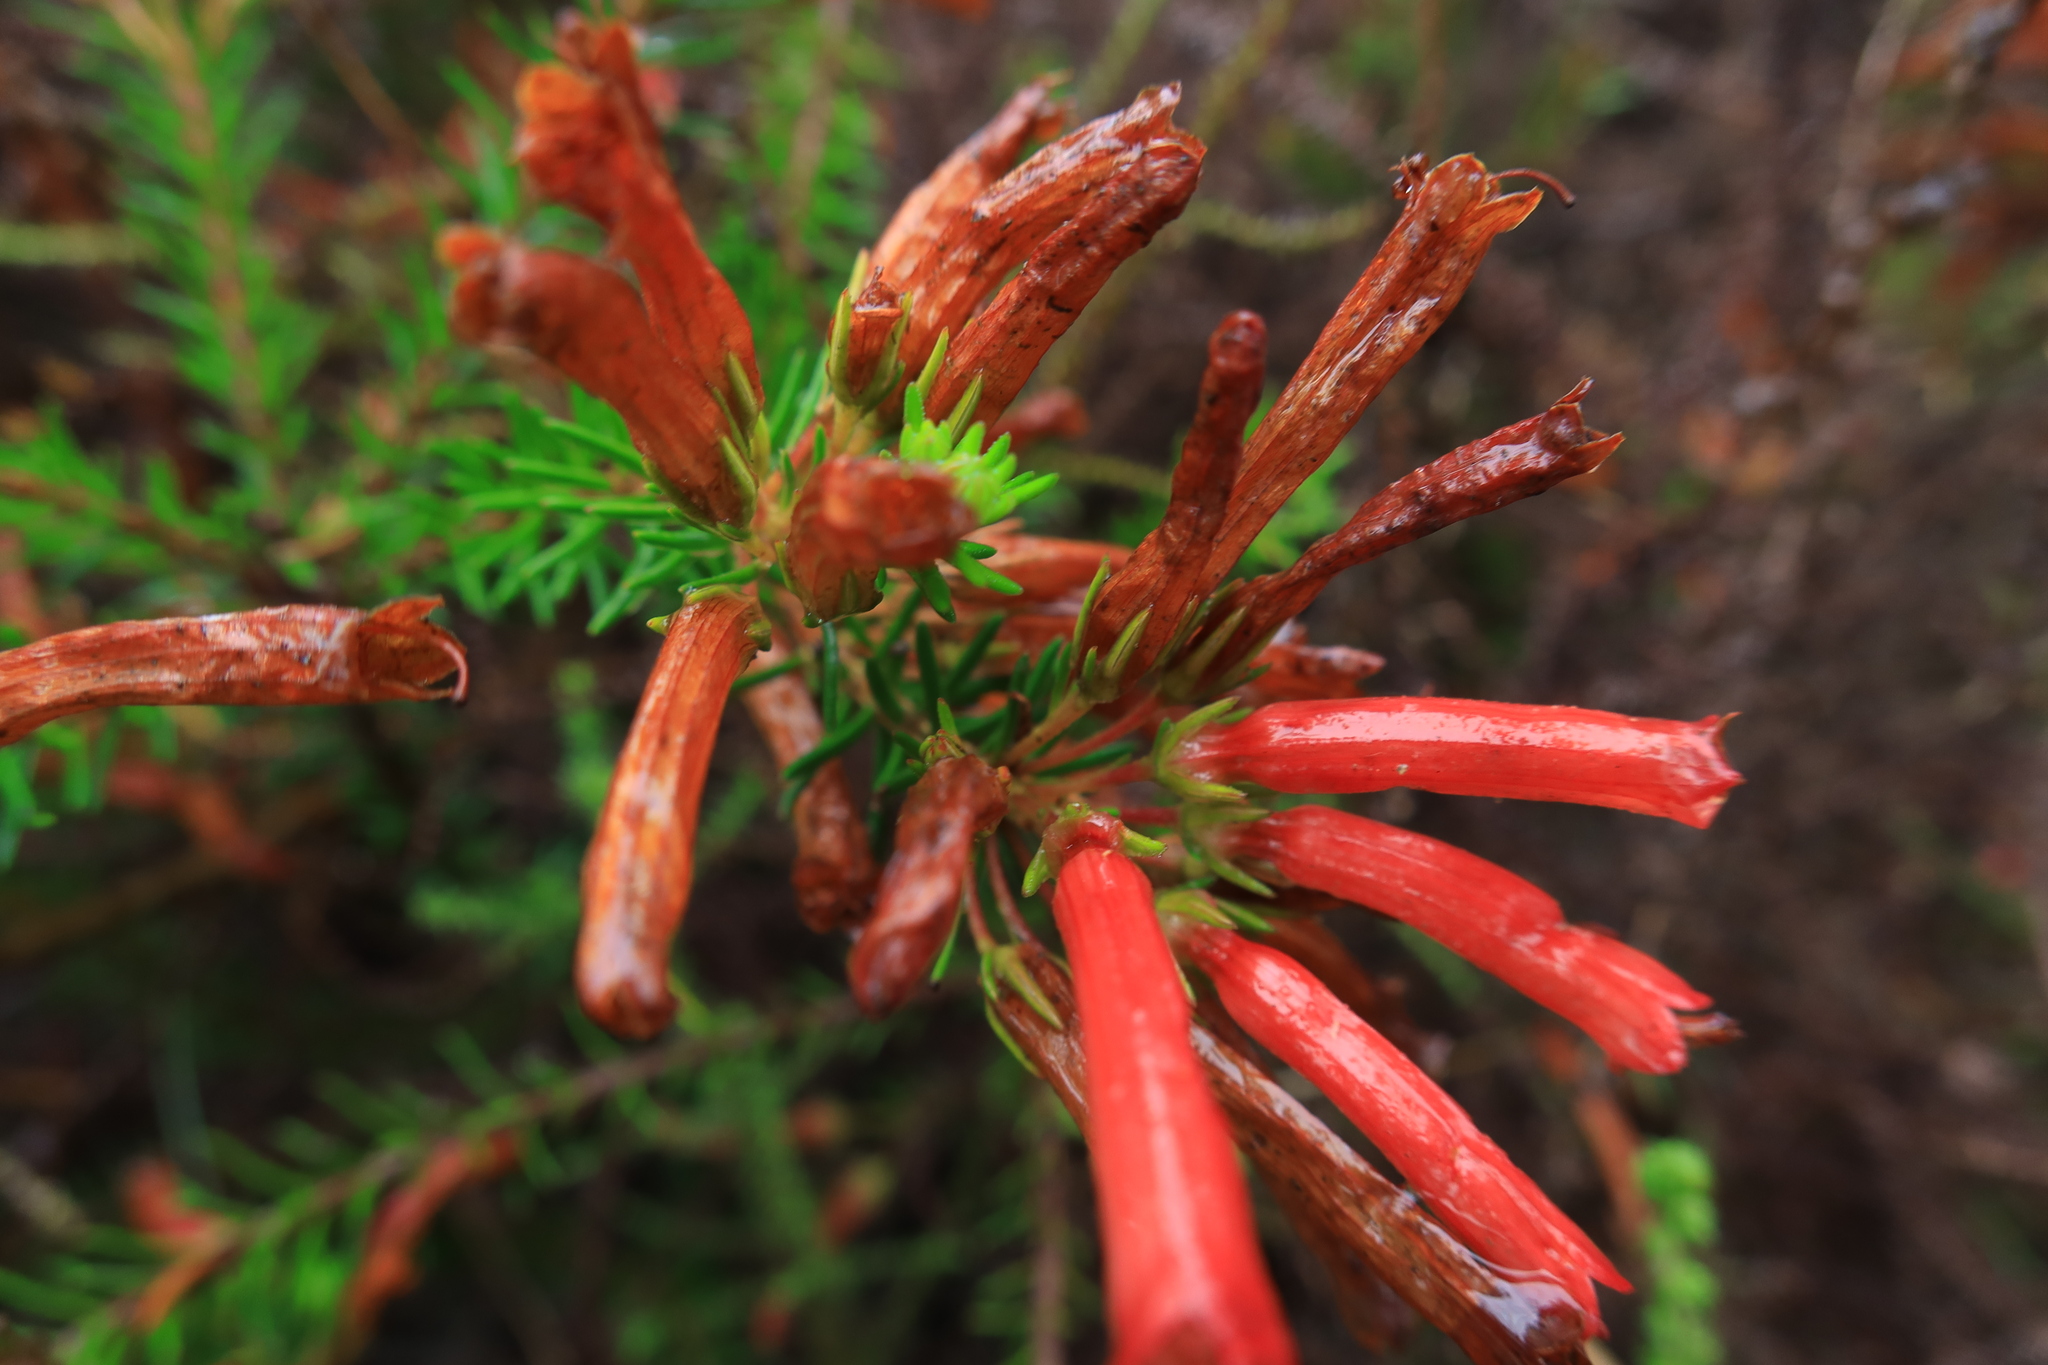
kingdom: Plantae
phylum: Tracheophyta
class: Magnoliopsida
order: Ericales
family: Ericaceae
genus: Erica
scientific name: Erica nevillei
